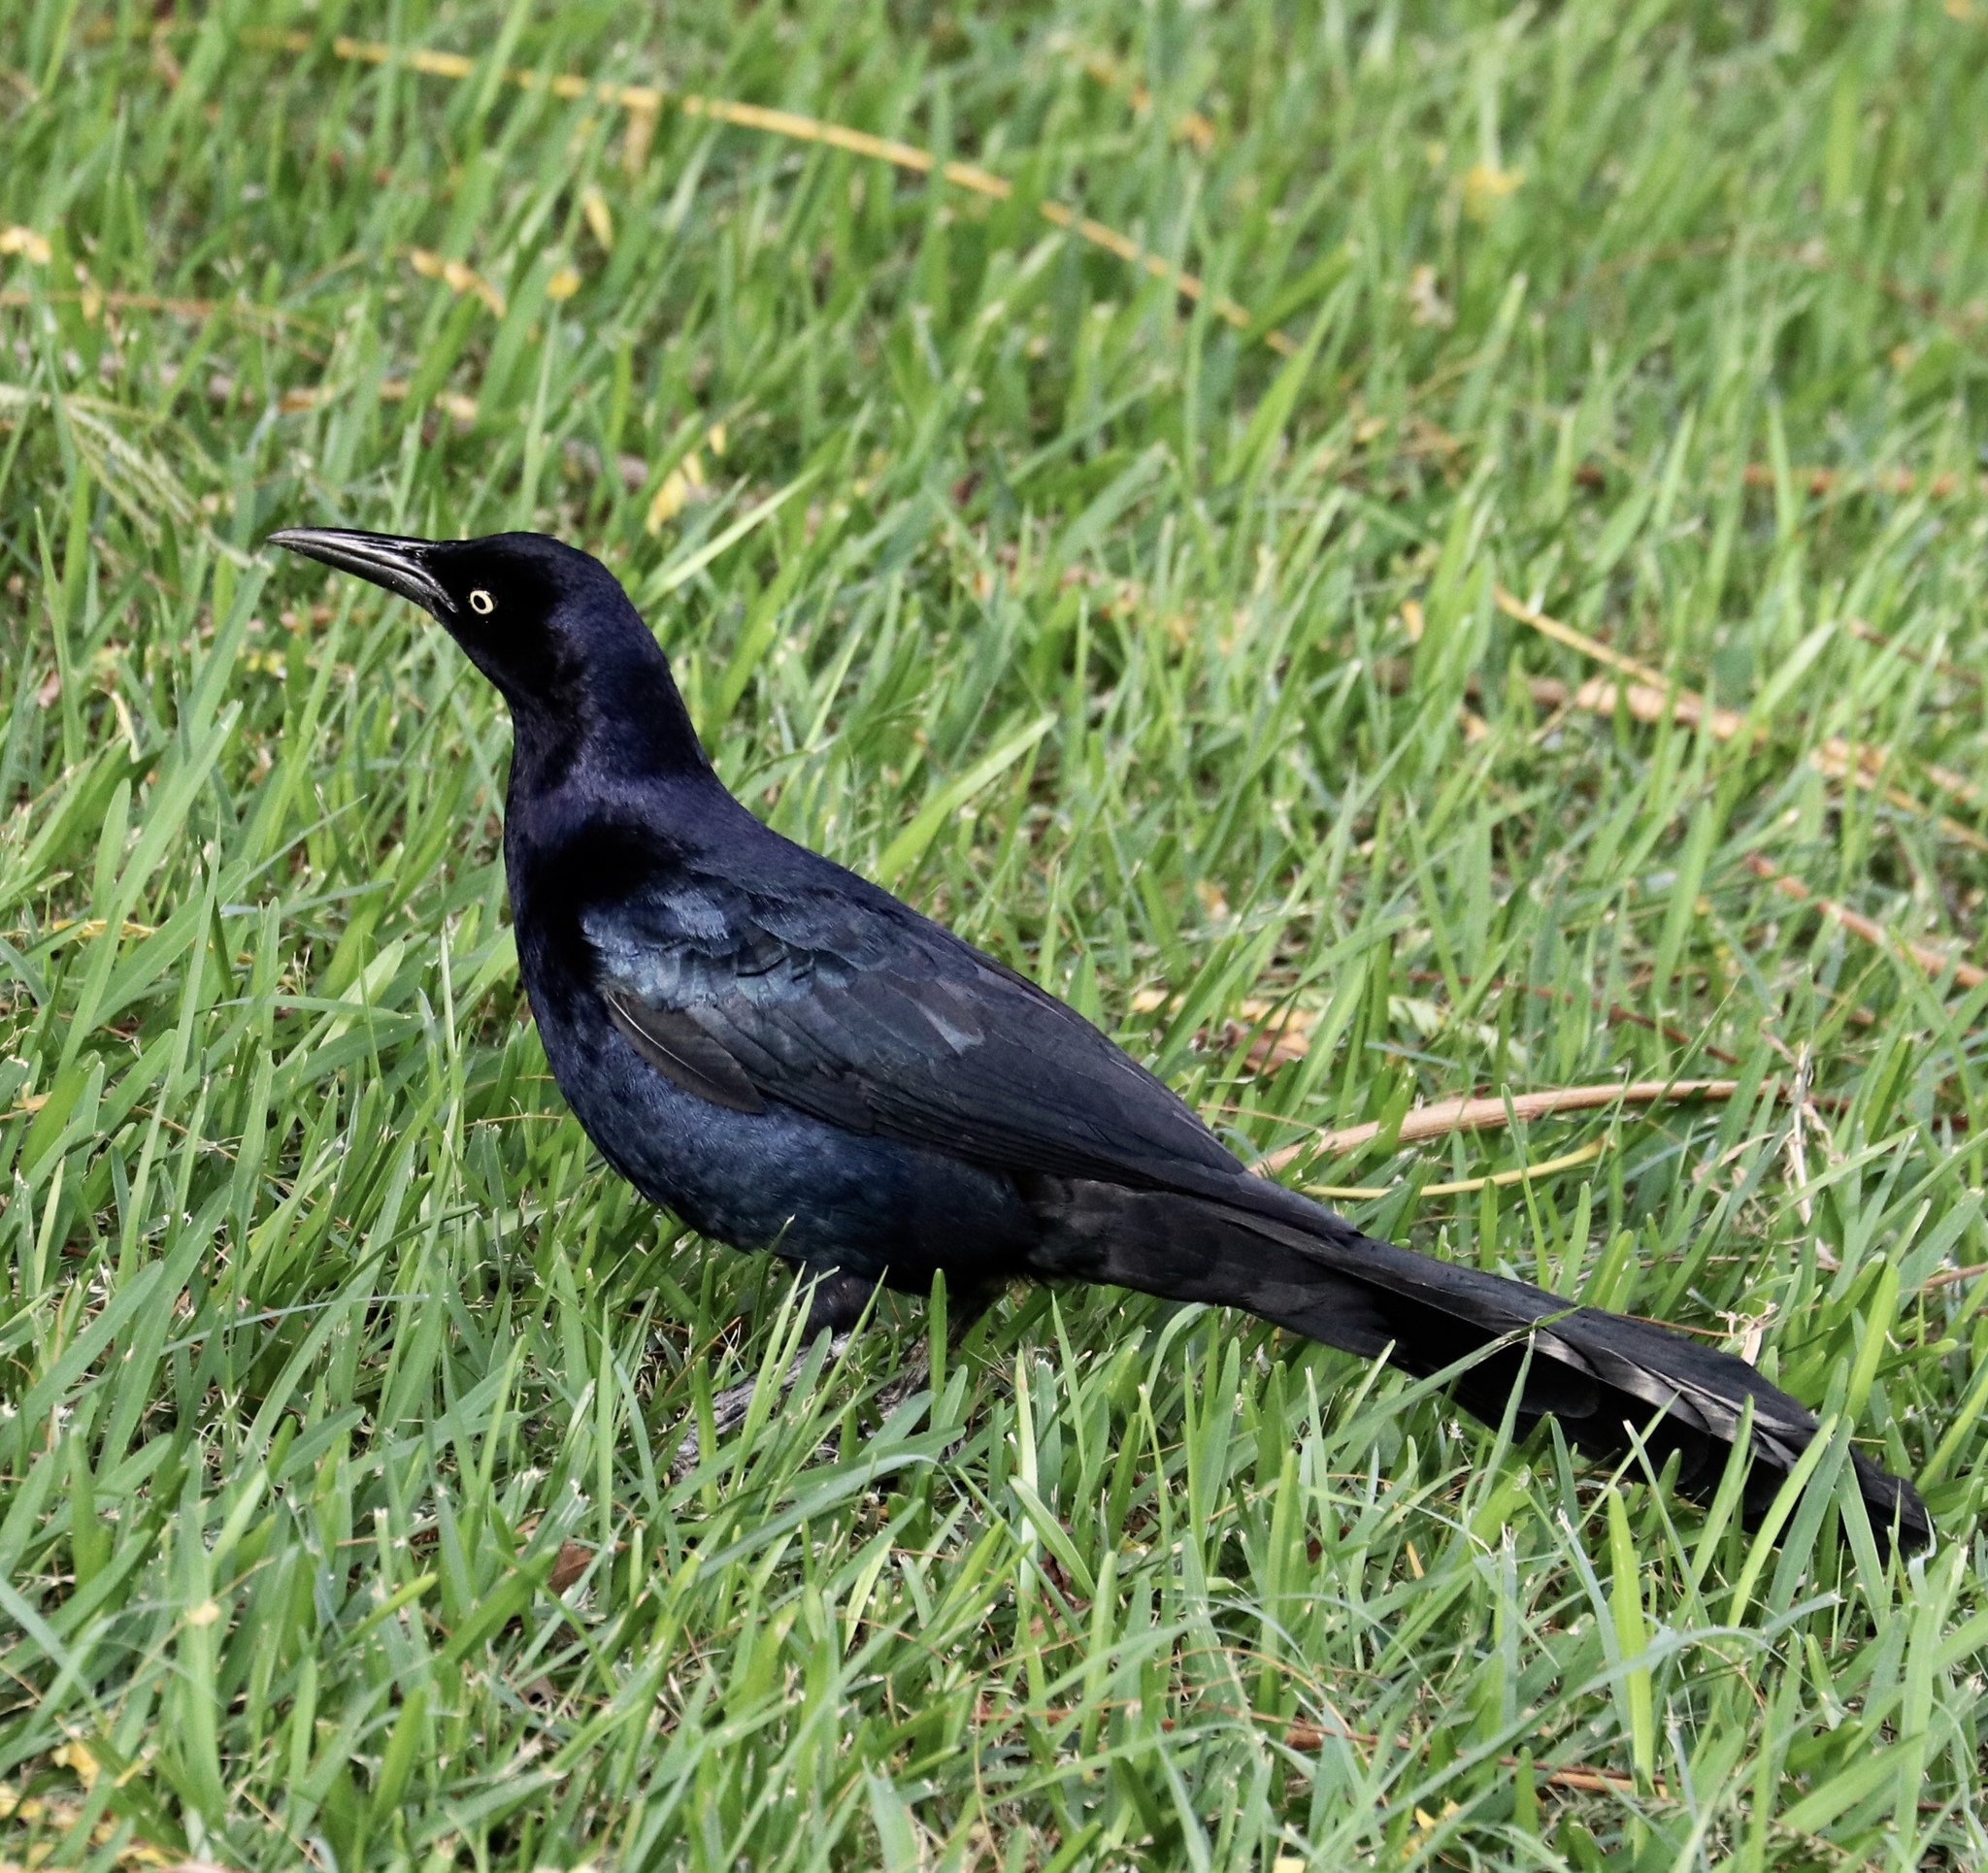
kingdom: Animalia
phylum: Chordata
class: Aves
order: Passeriformes
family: Icteridae
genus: Quiscalus
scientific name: Quiscalus mexicanus
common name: Great-tailed grackle
